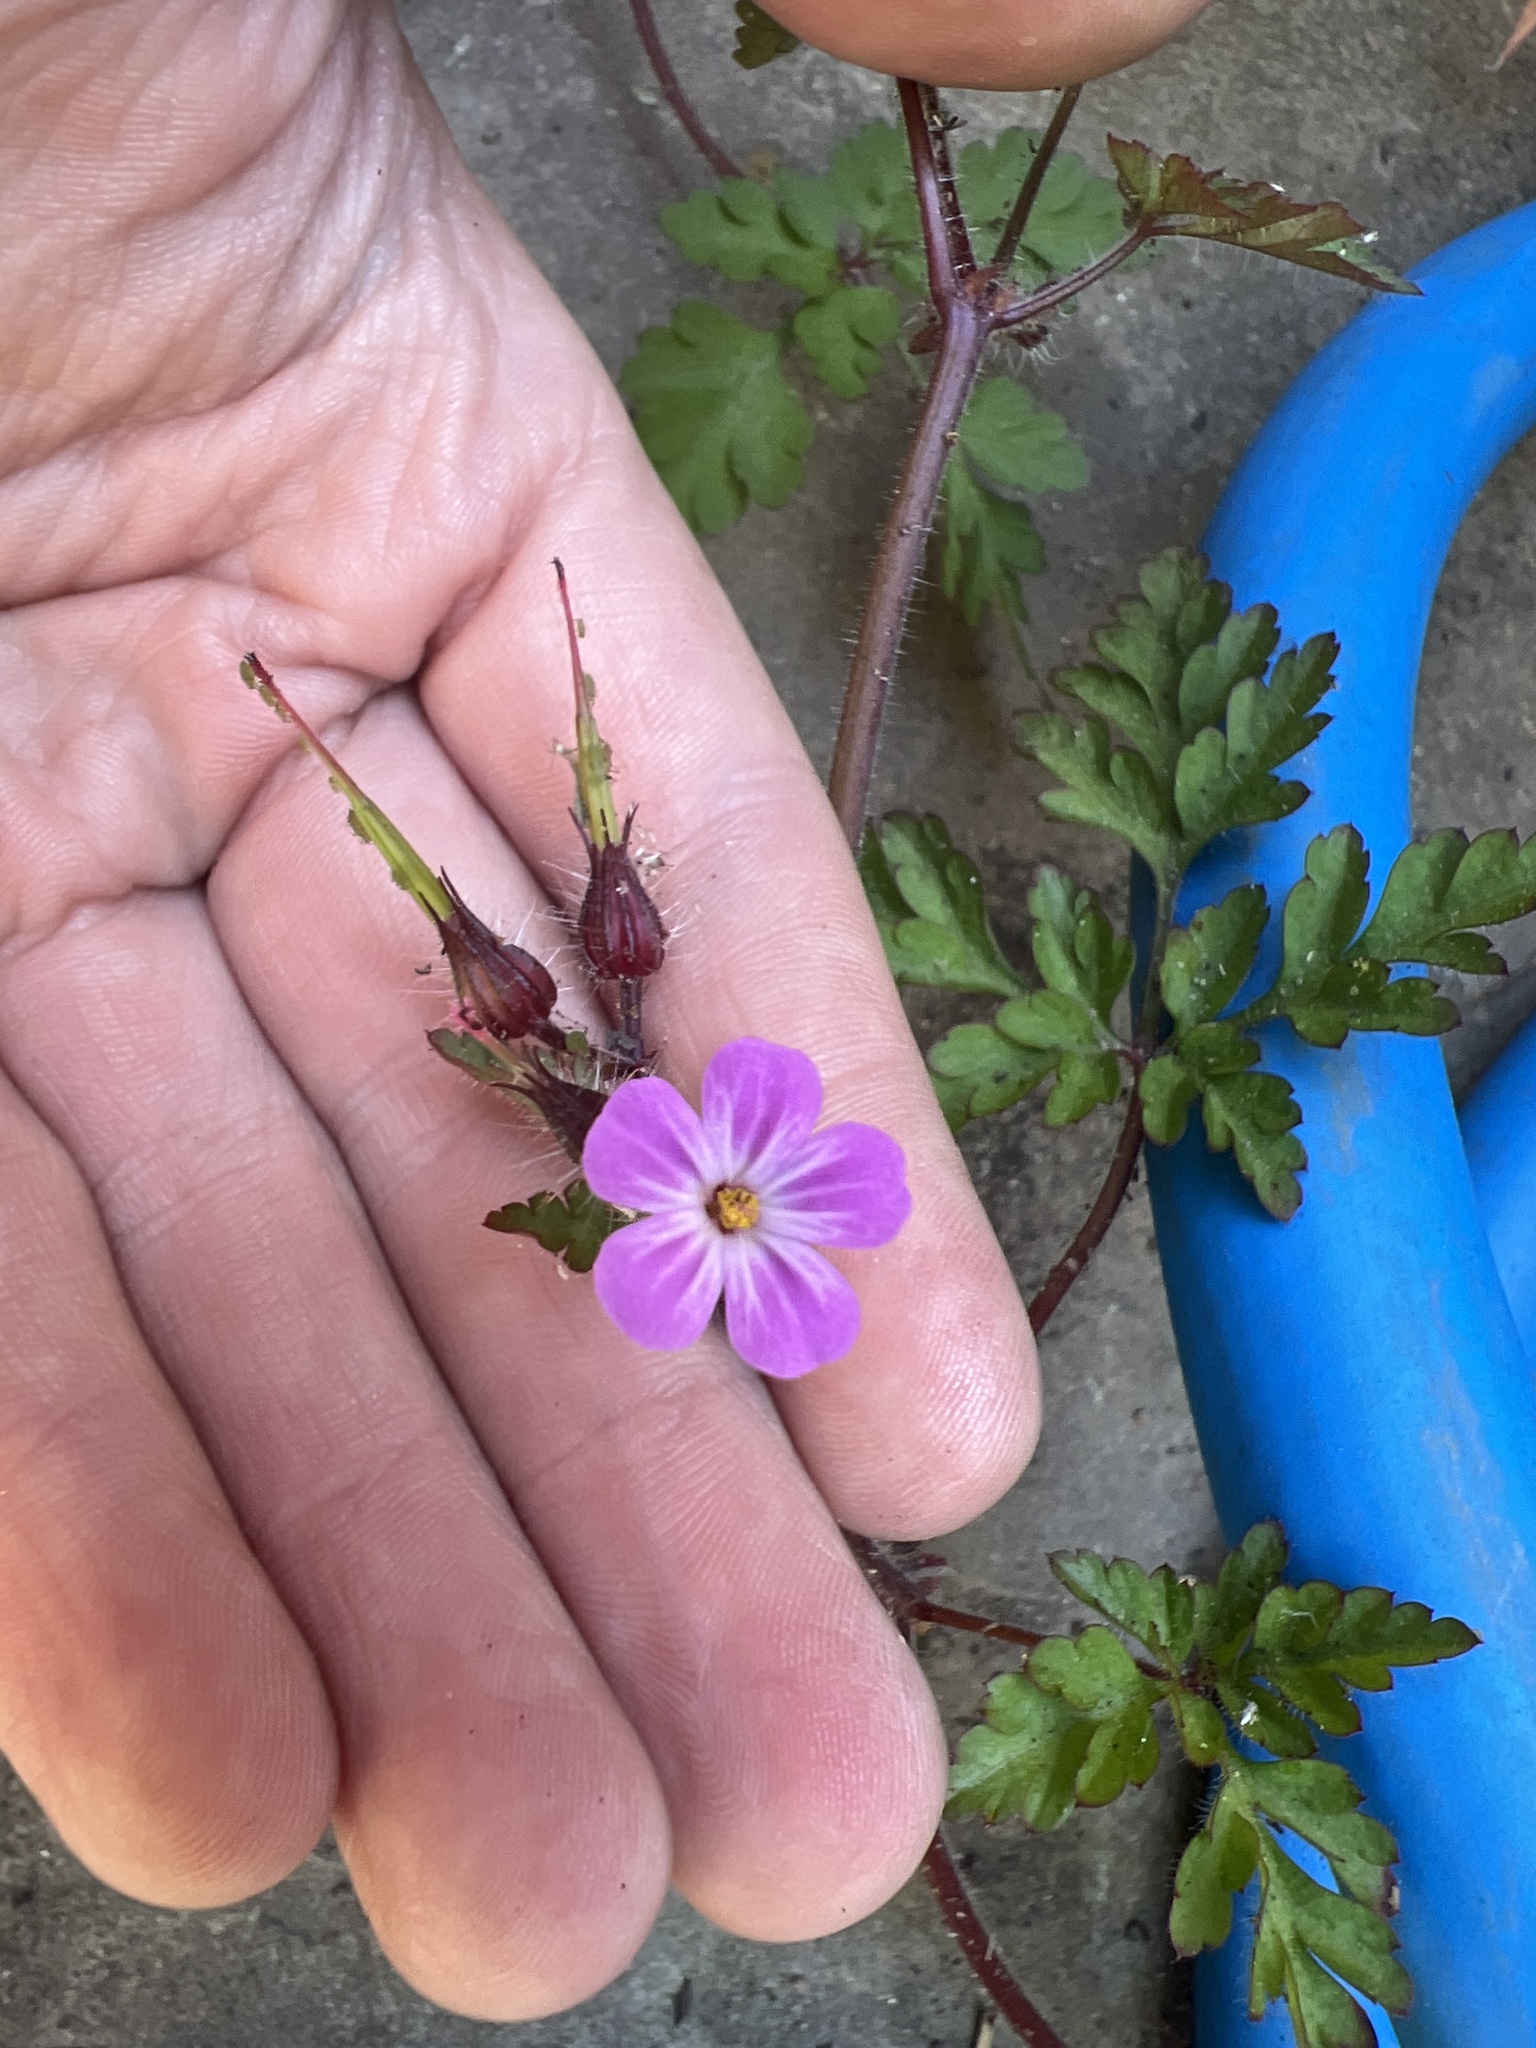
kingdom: Plantae
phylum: Tracheophyta
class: Magnoliopsida
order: Geraniales
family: Geraniaceae
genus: Geranium
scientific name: Geranium robertianum
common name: Herb-robert
